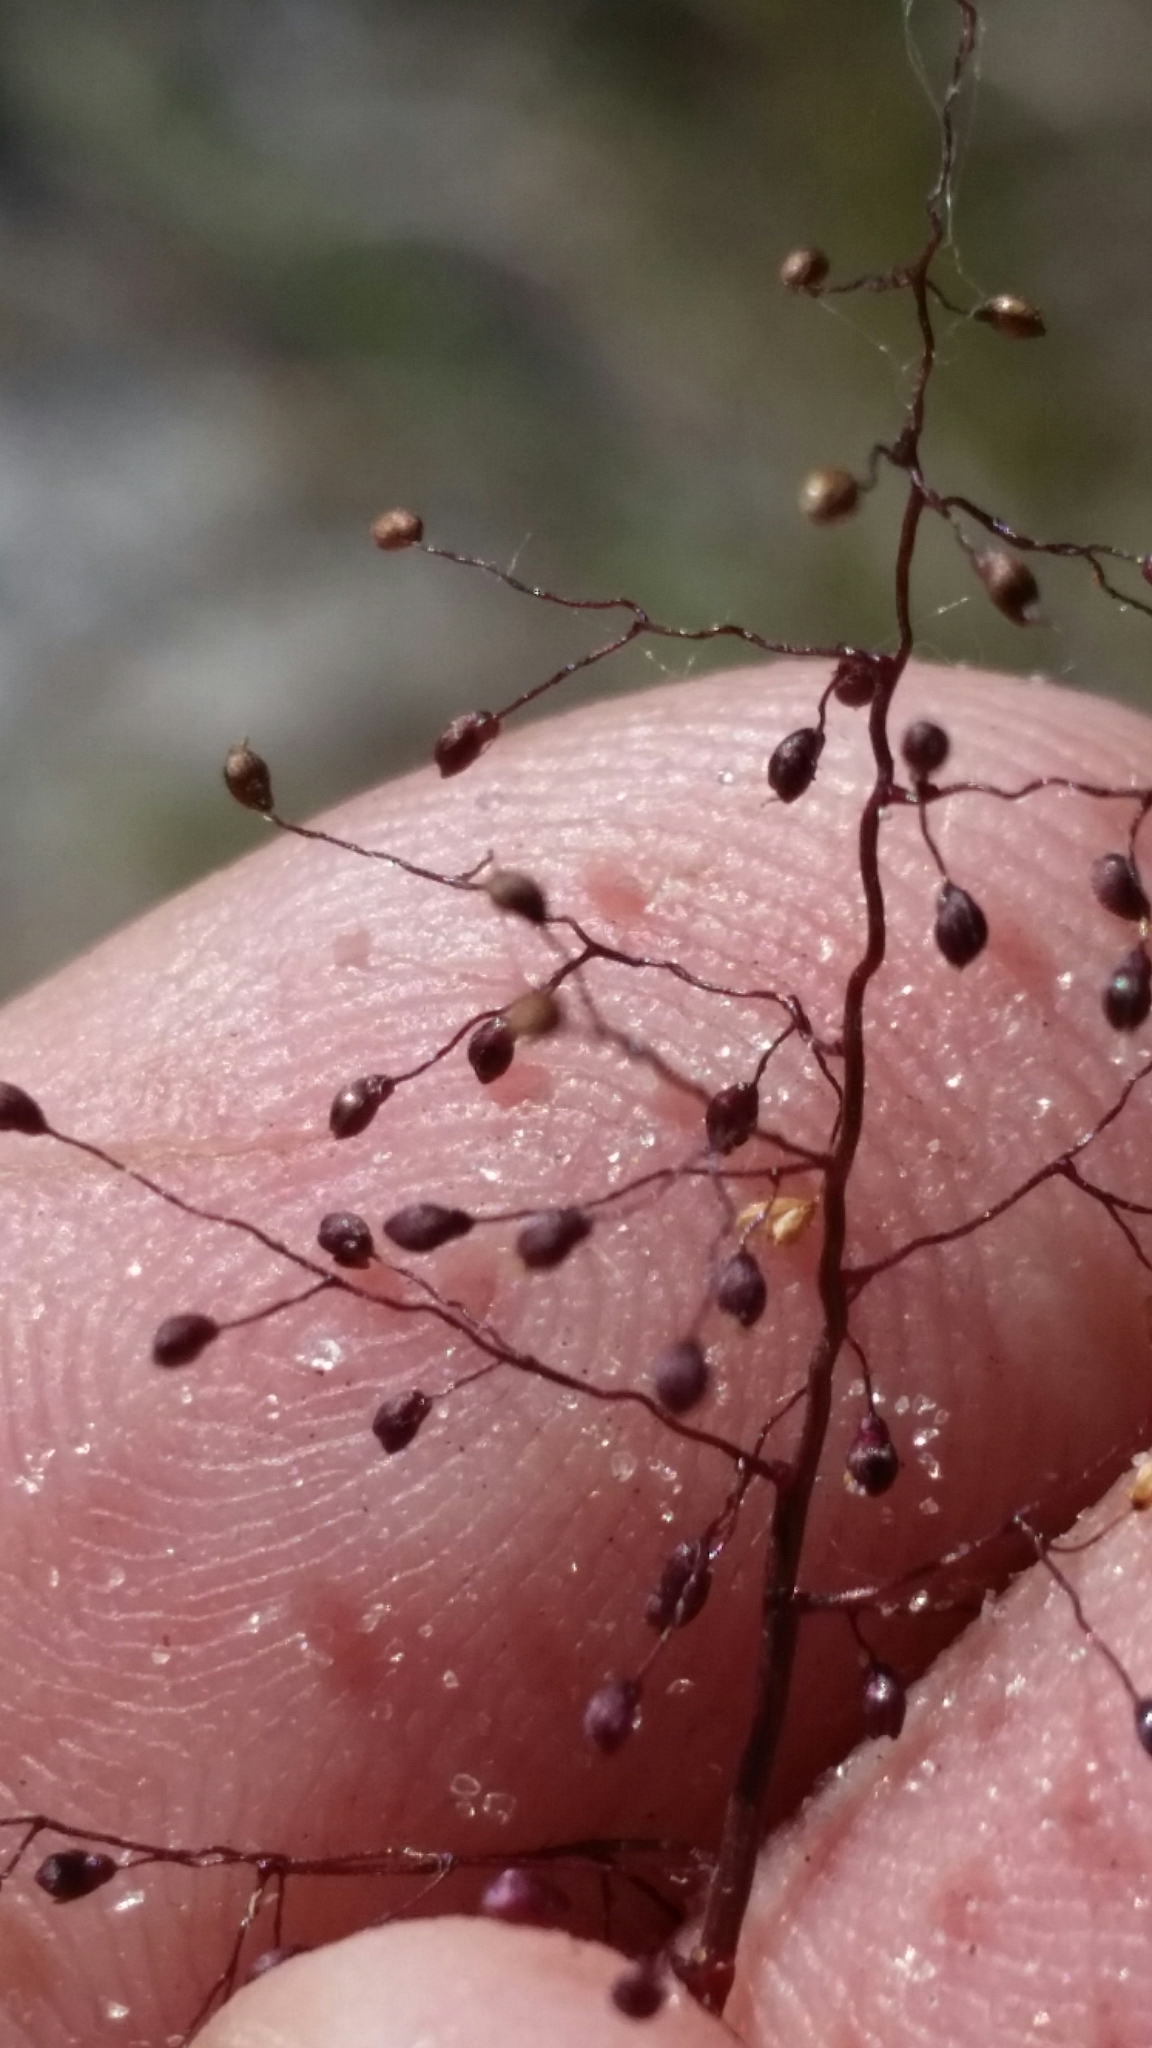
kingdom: Plantae
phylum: Tracheophyta
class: Liliopsida
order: Poales
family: Poaceae
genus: Dichanthelium
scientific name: Dichanthelium chamaelonche
